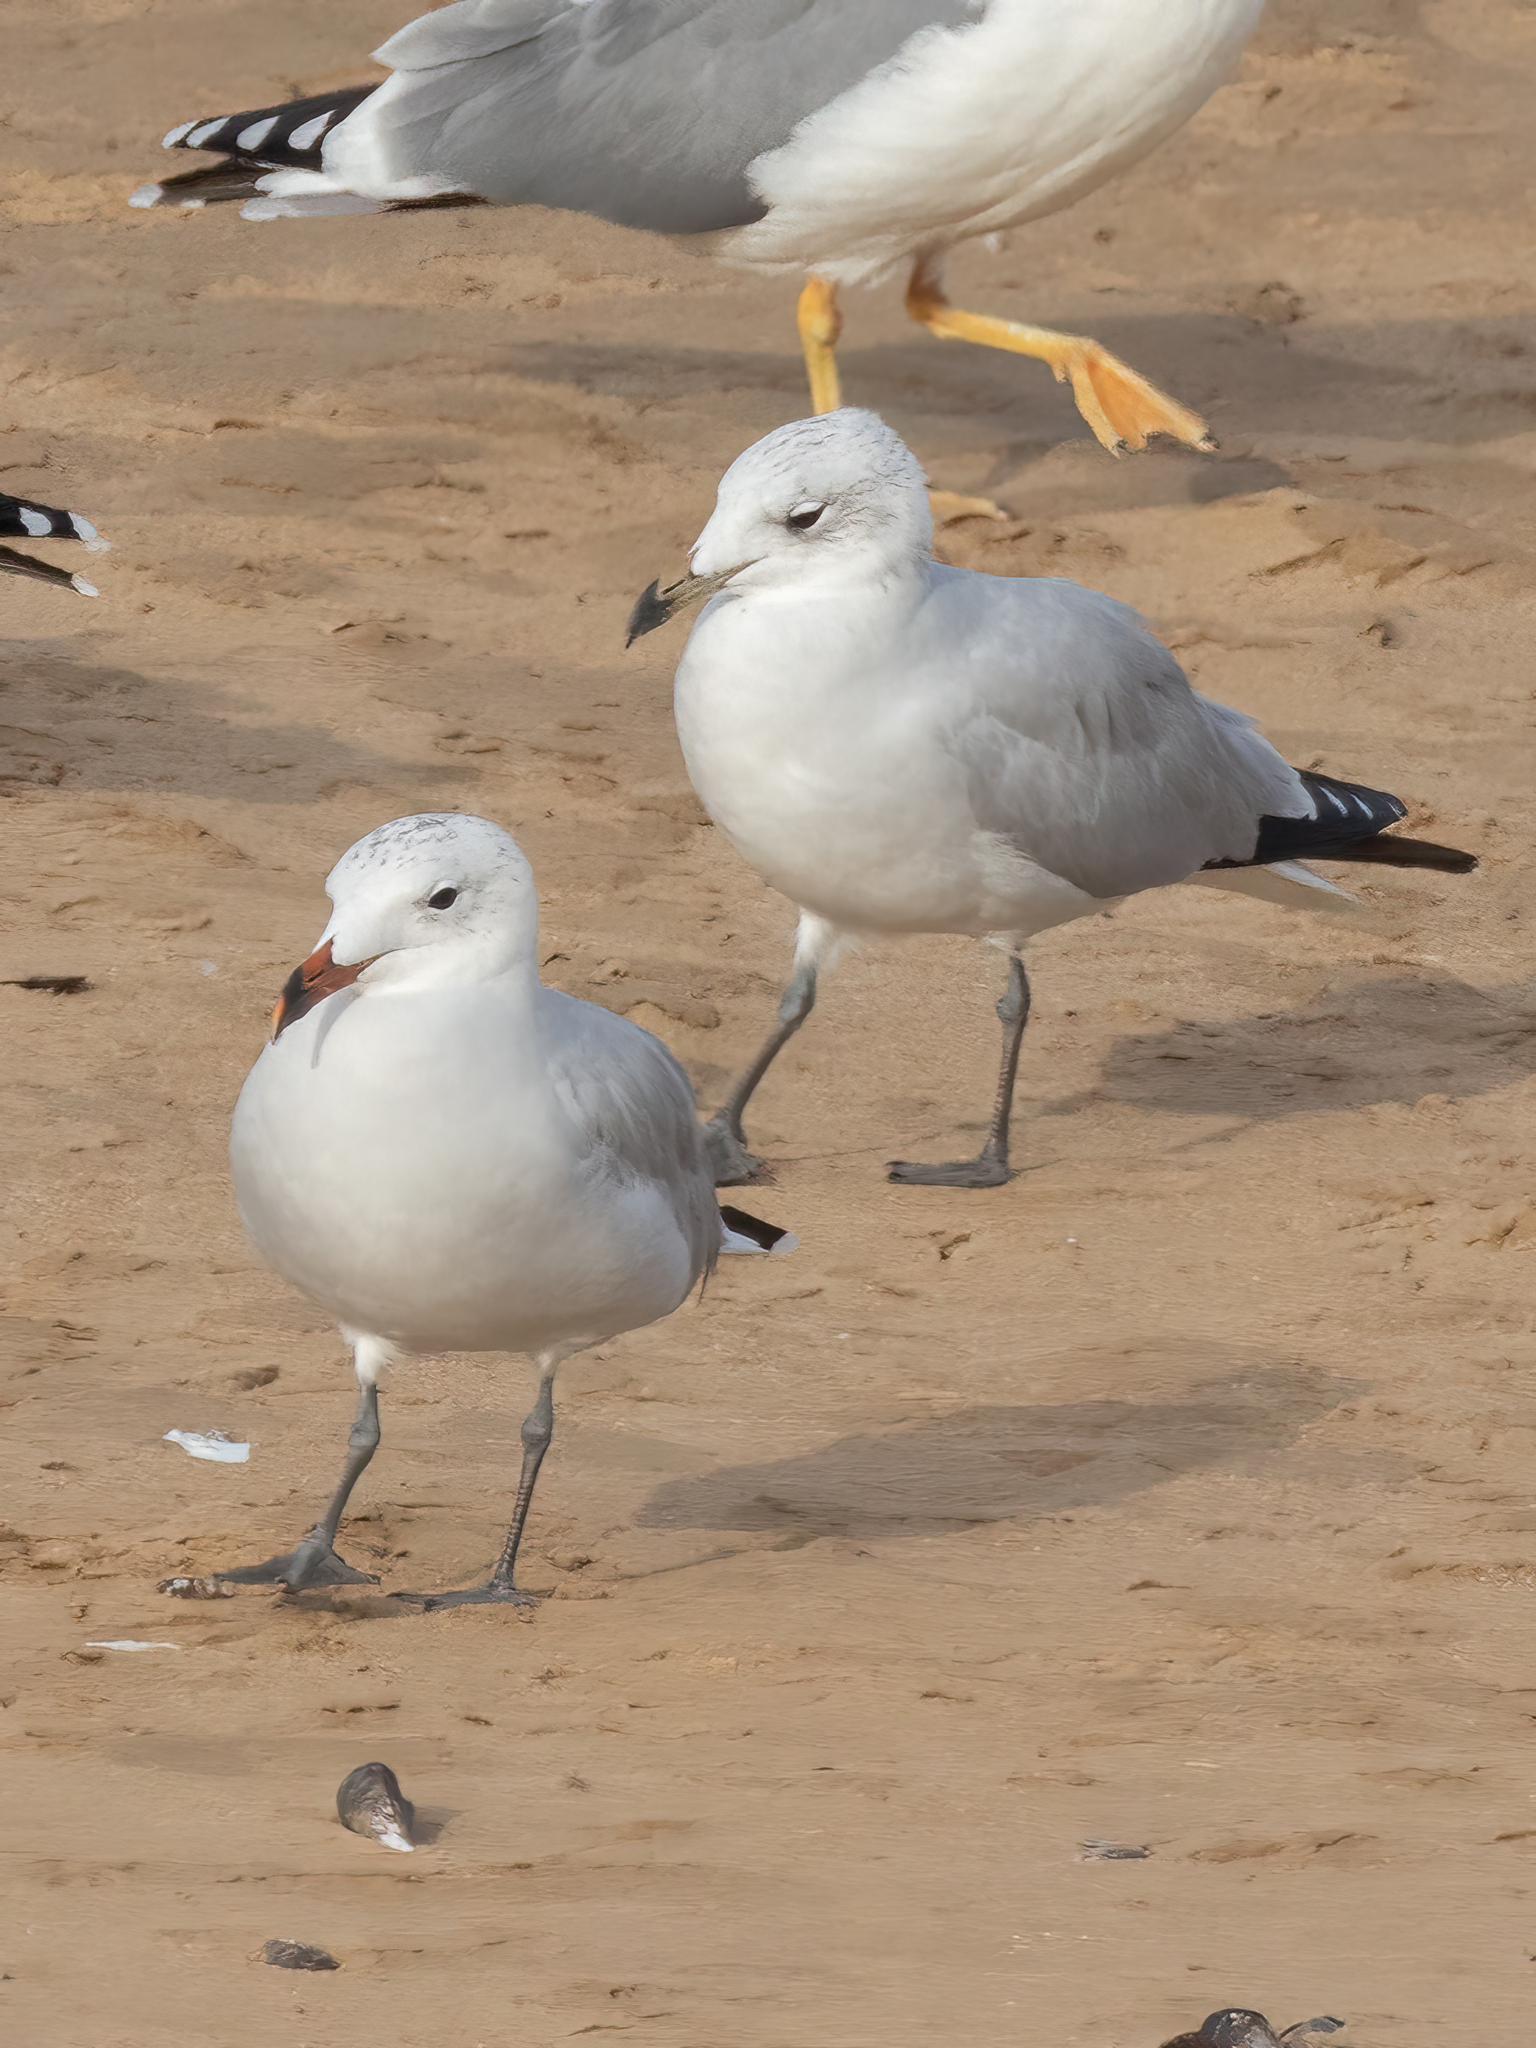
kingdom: Animalia
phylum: Chordata
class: Aves
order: Charadriiformes
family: Laridae
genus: Ichthyaetus
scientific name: Ichthyaetus audouinii
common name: Audouin's gull
